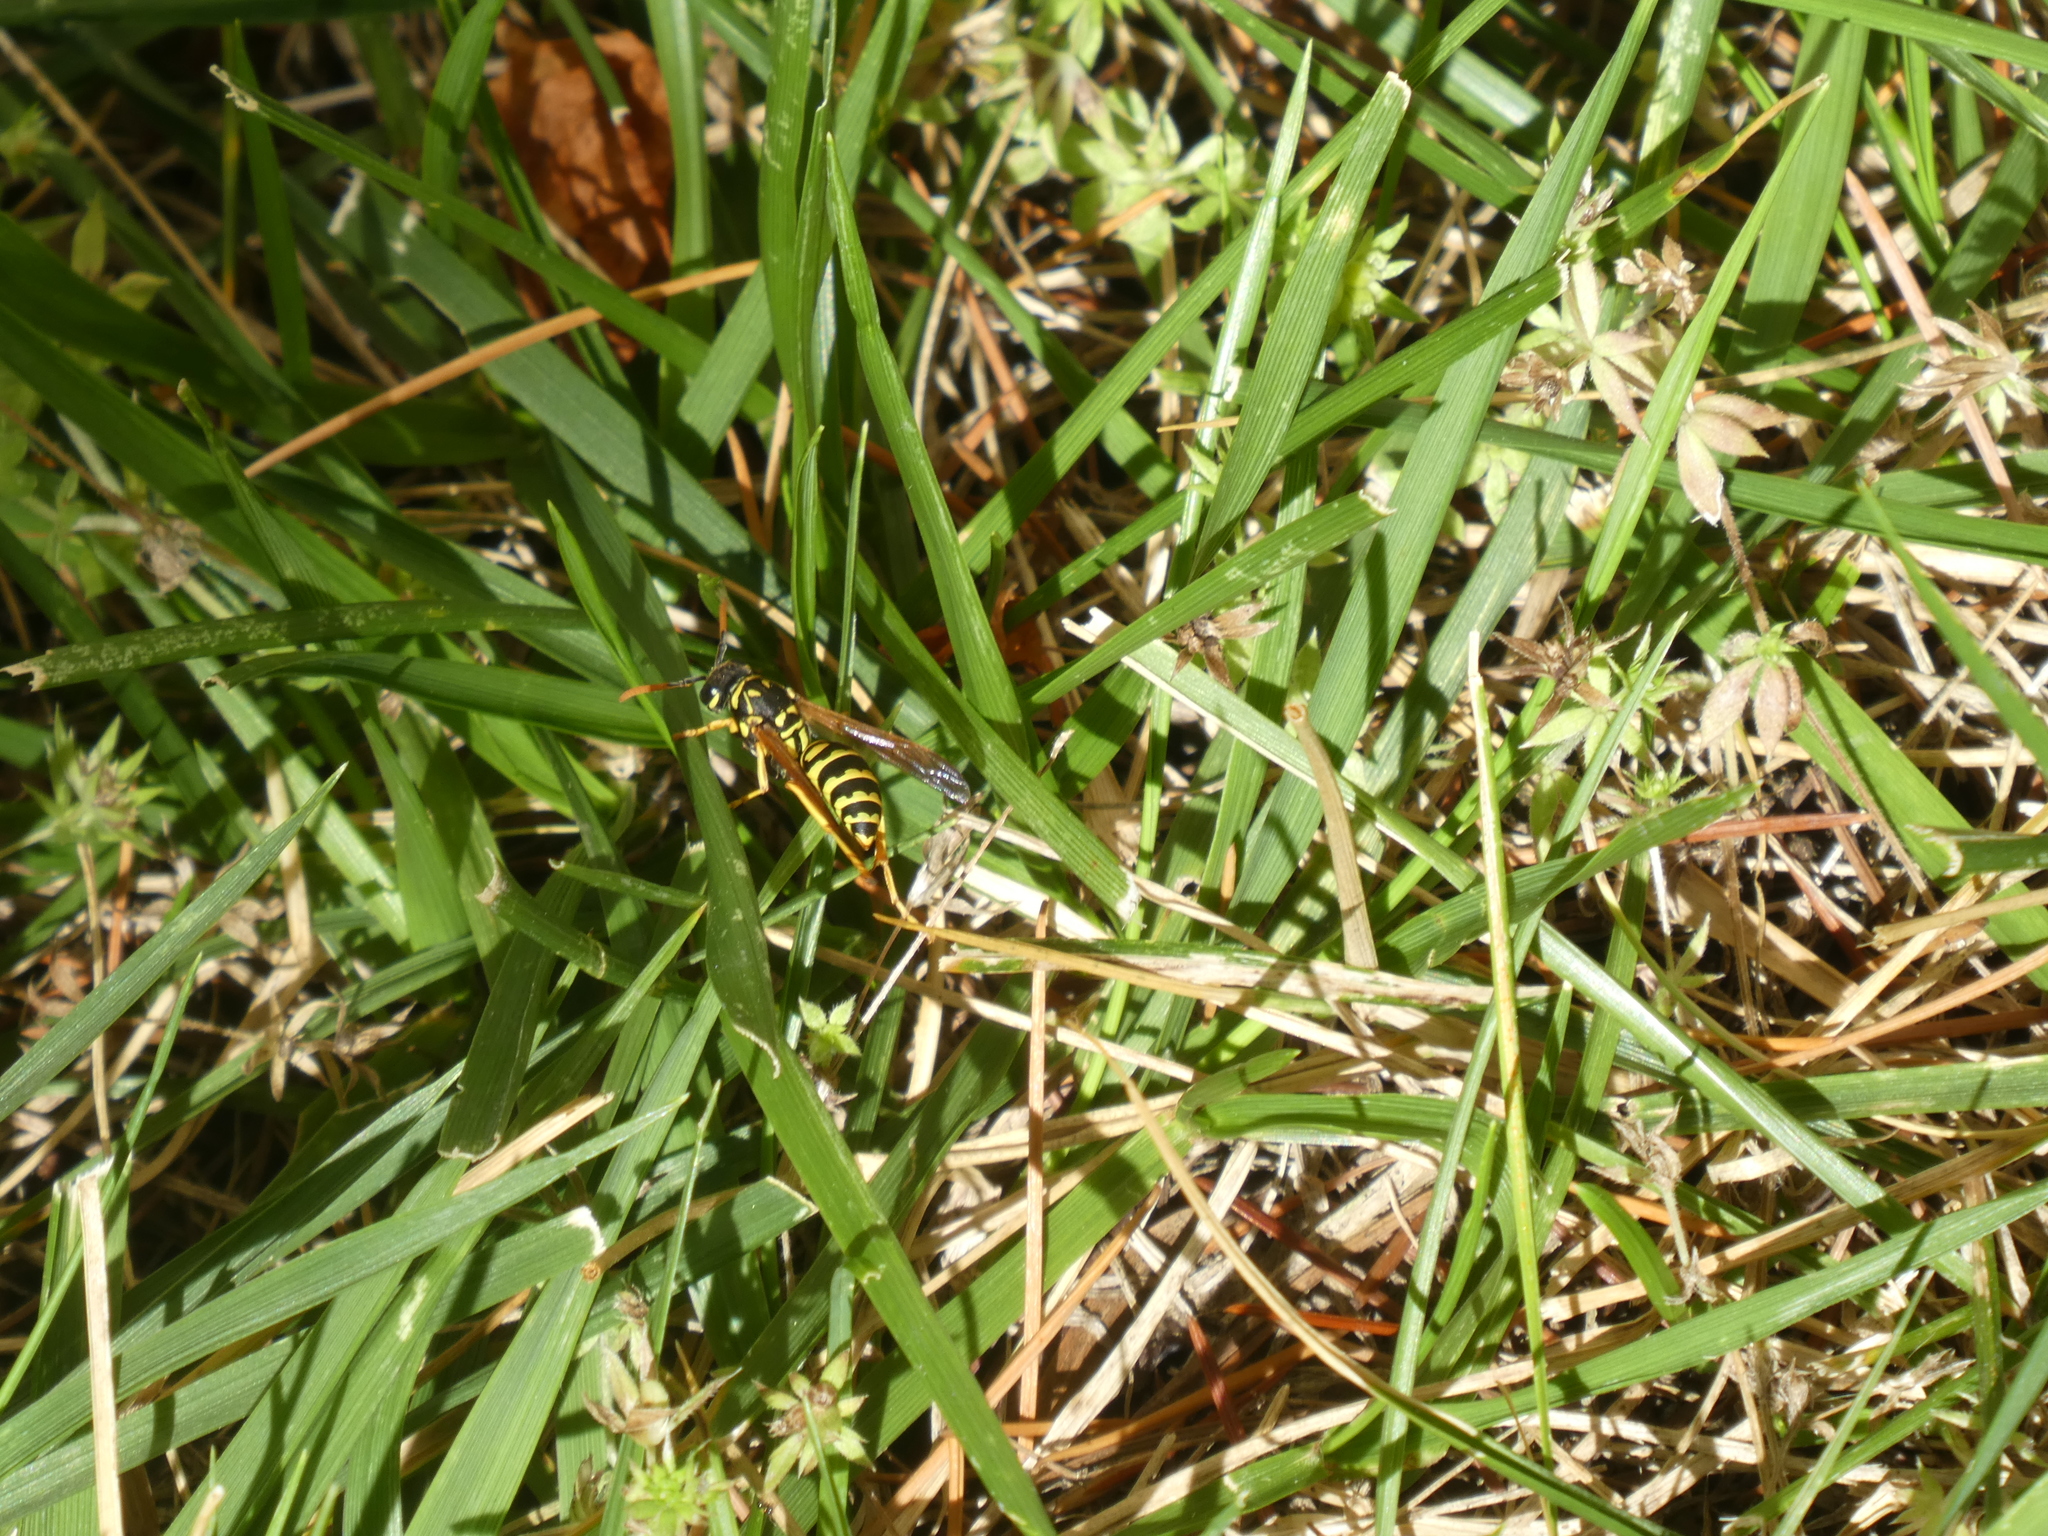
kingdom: Animalia
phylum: Arthropoda
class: Insecta
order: Hymenoptera
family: Eumenidae
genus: Polistes
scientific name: Polistes dominula
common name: Paper wasp
